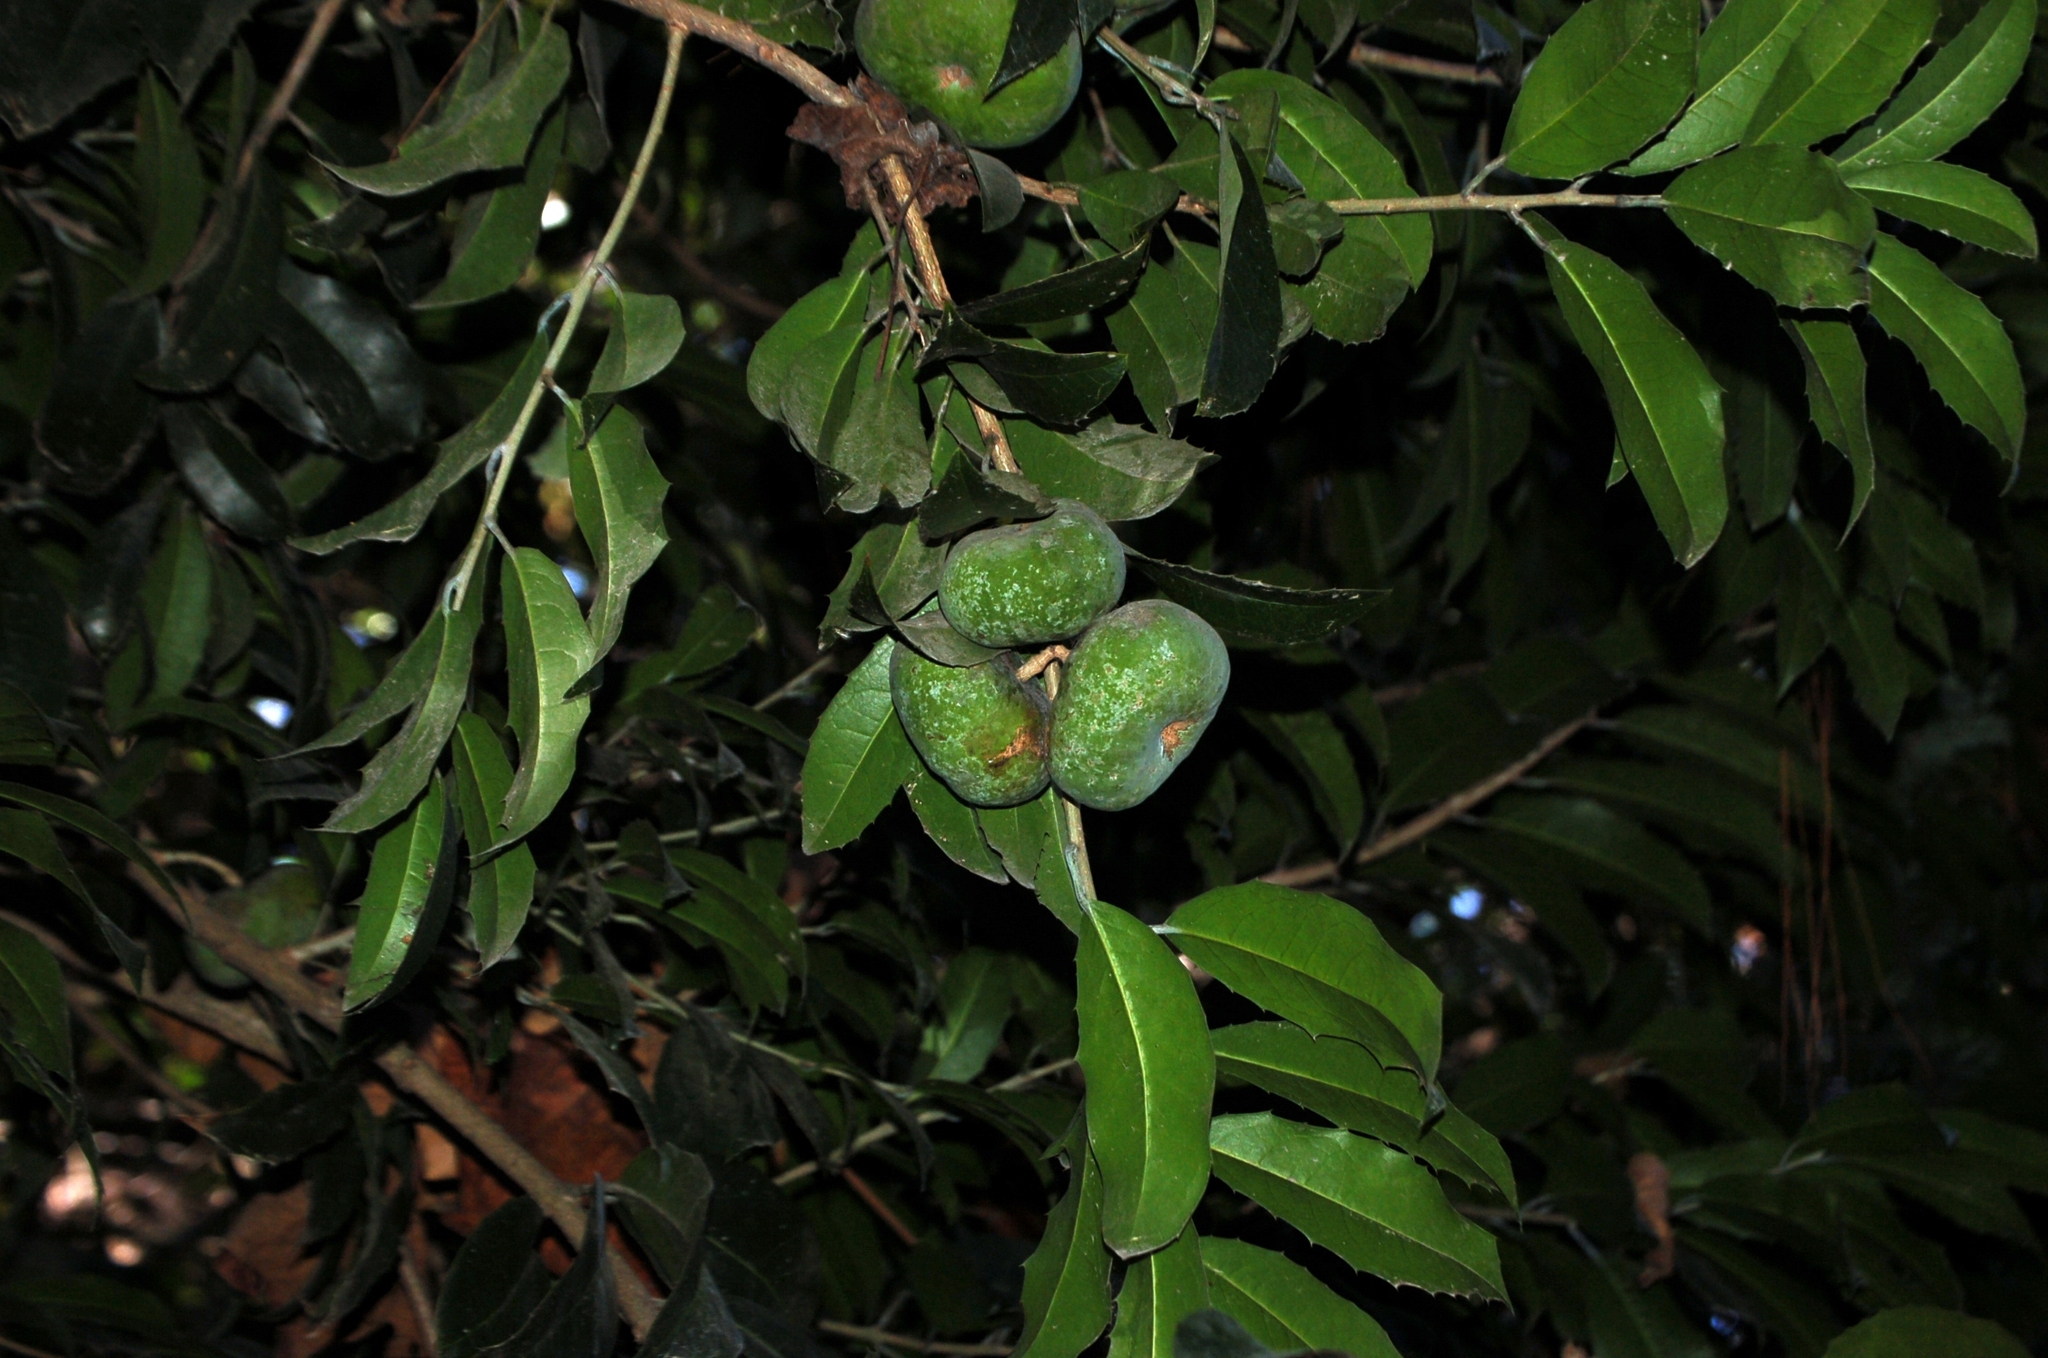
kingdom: Plantae
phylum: Tracheophyta
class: Magnoliopsida
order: Malpighiales
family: Salicaceae
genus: Olmediella
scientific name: Olmediella betschleriana
